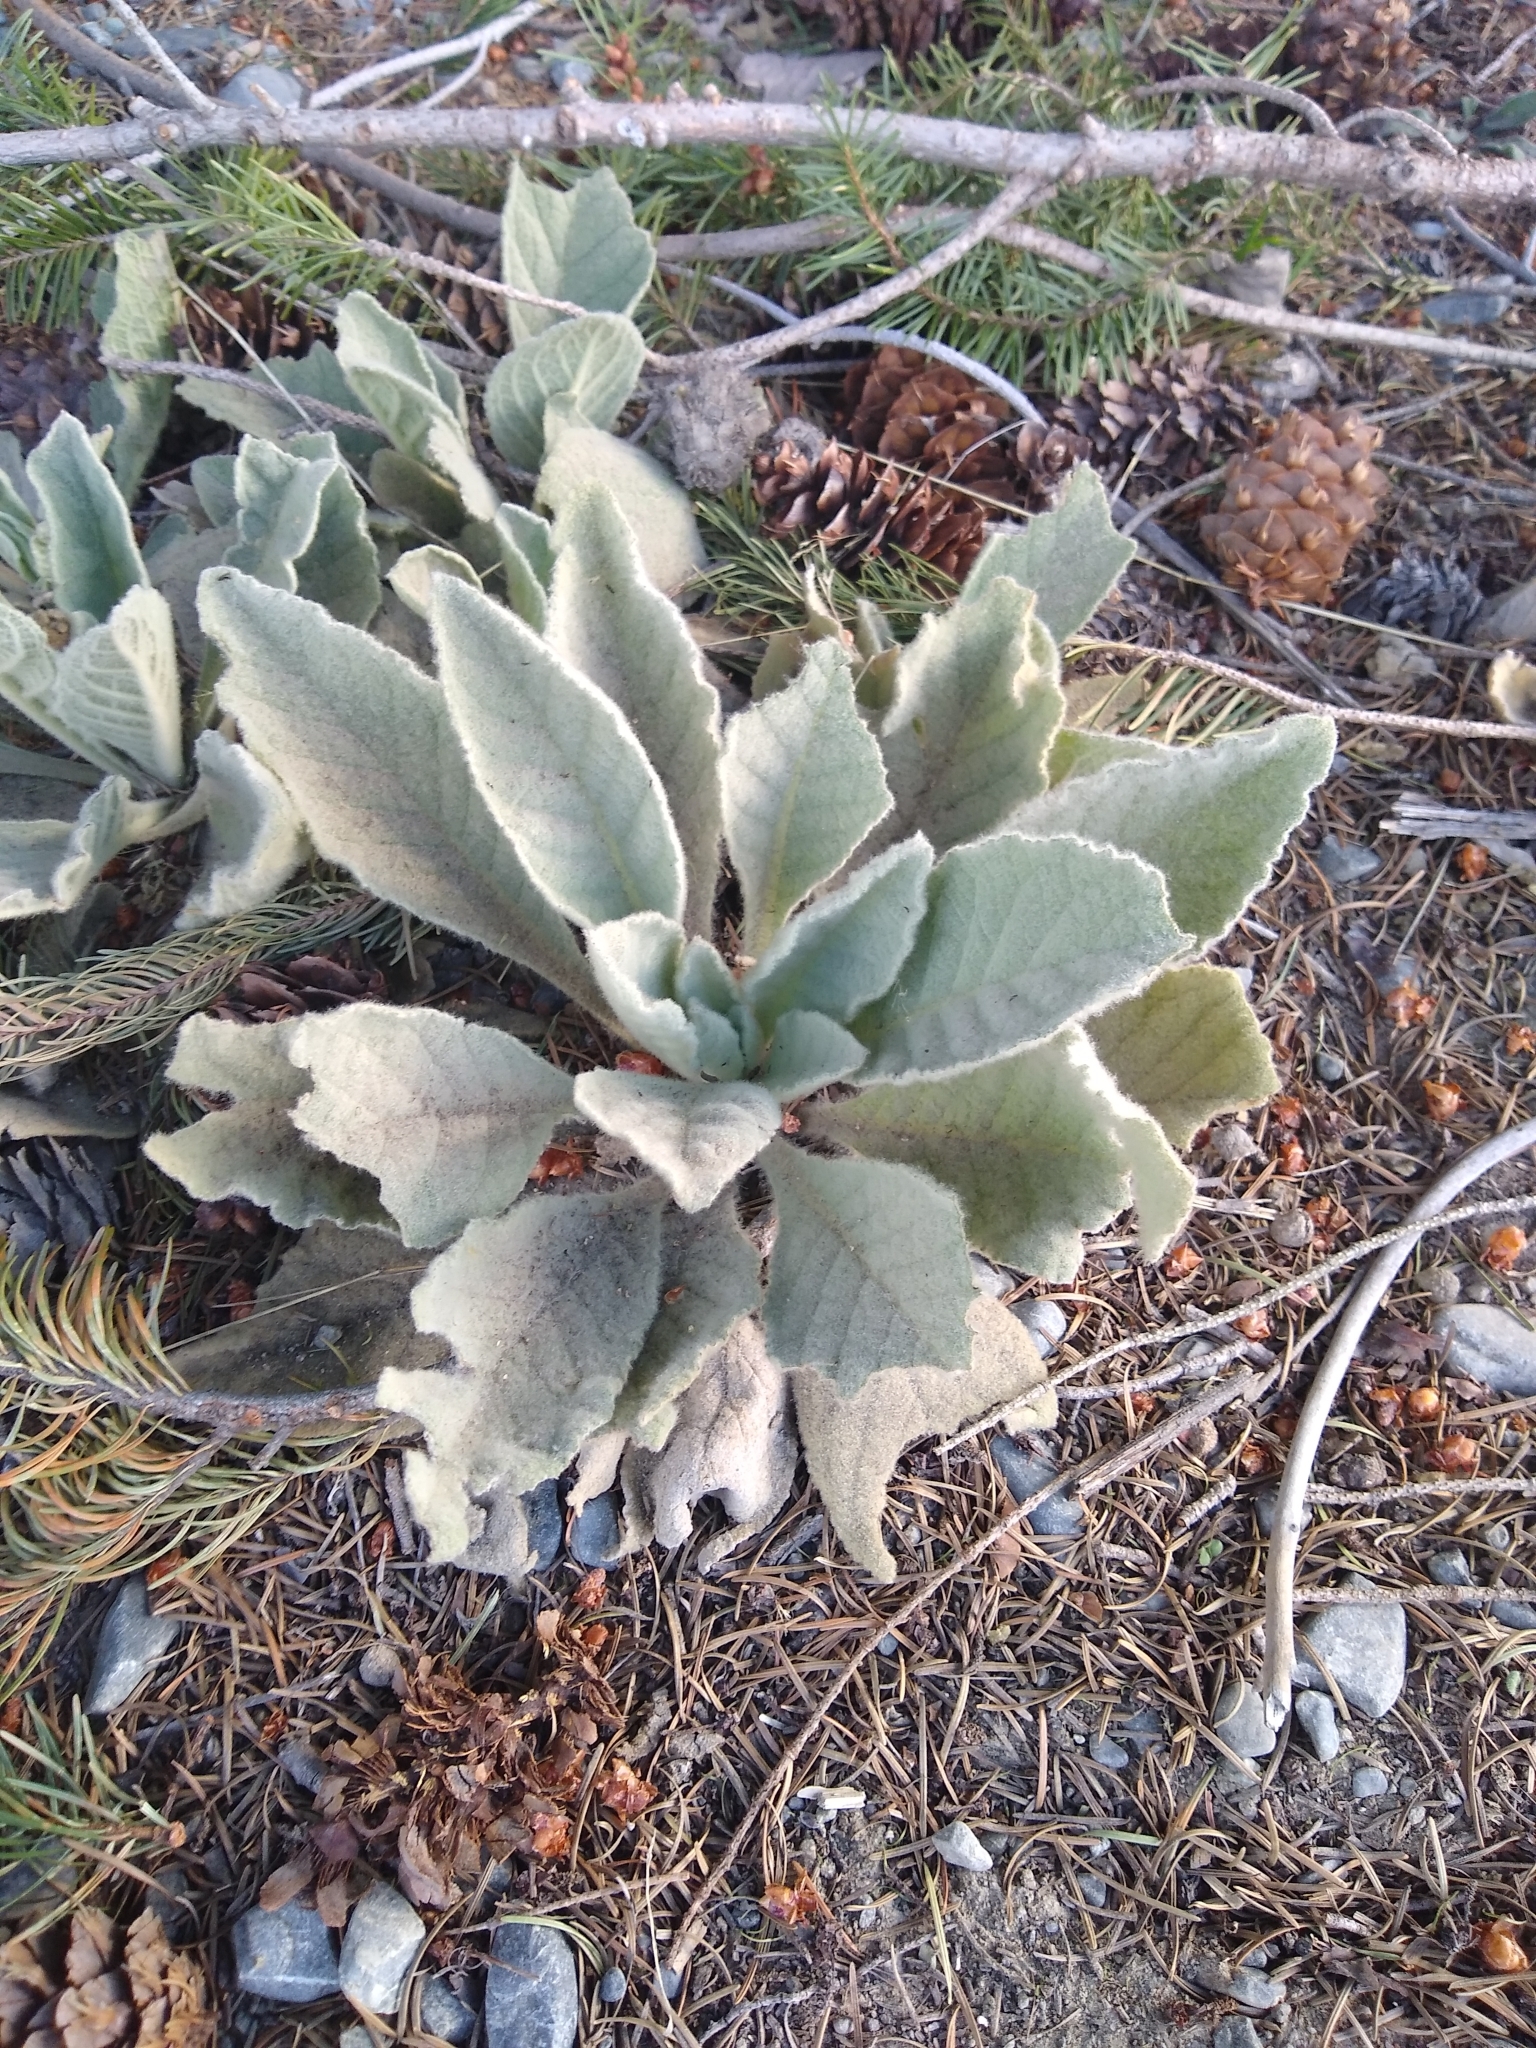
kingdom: Plantae
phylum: Tracheophyta
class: Magnoliopsida
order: Lamiales
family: Scrophulariaceae
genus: Verbascum
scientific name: Verbascum thapsus
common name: Common mullein
